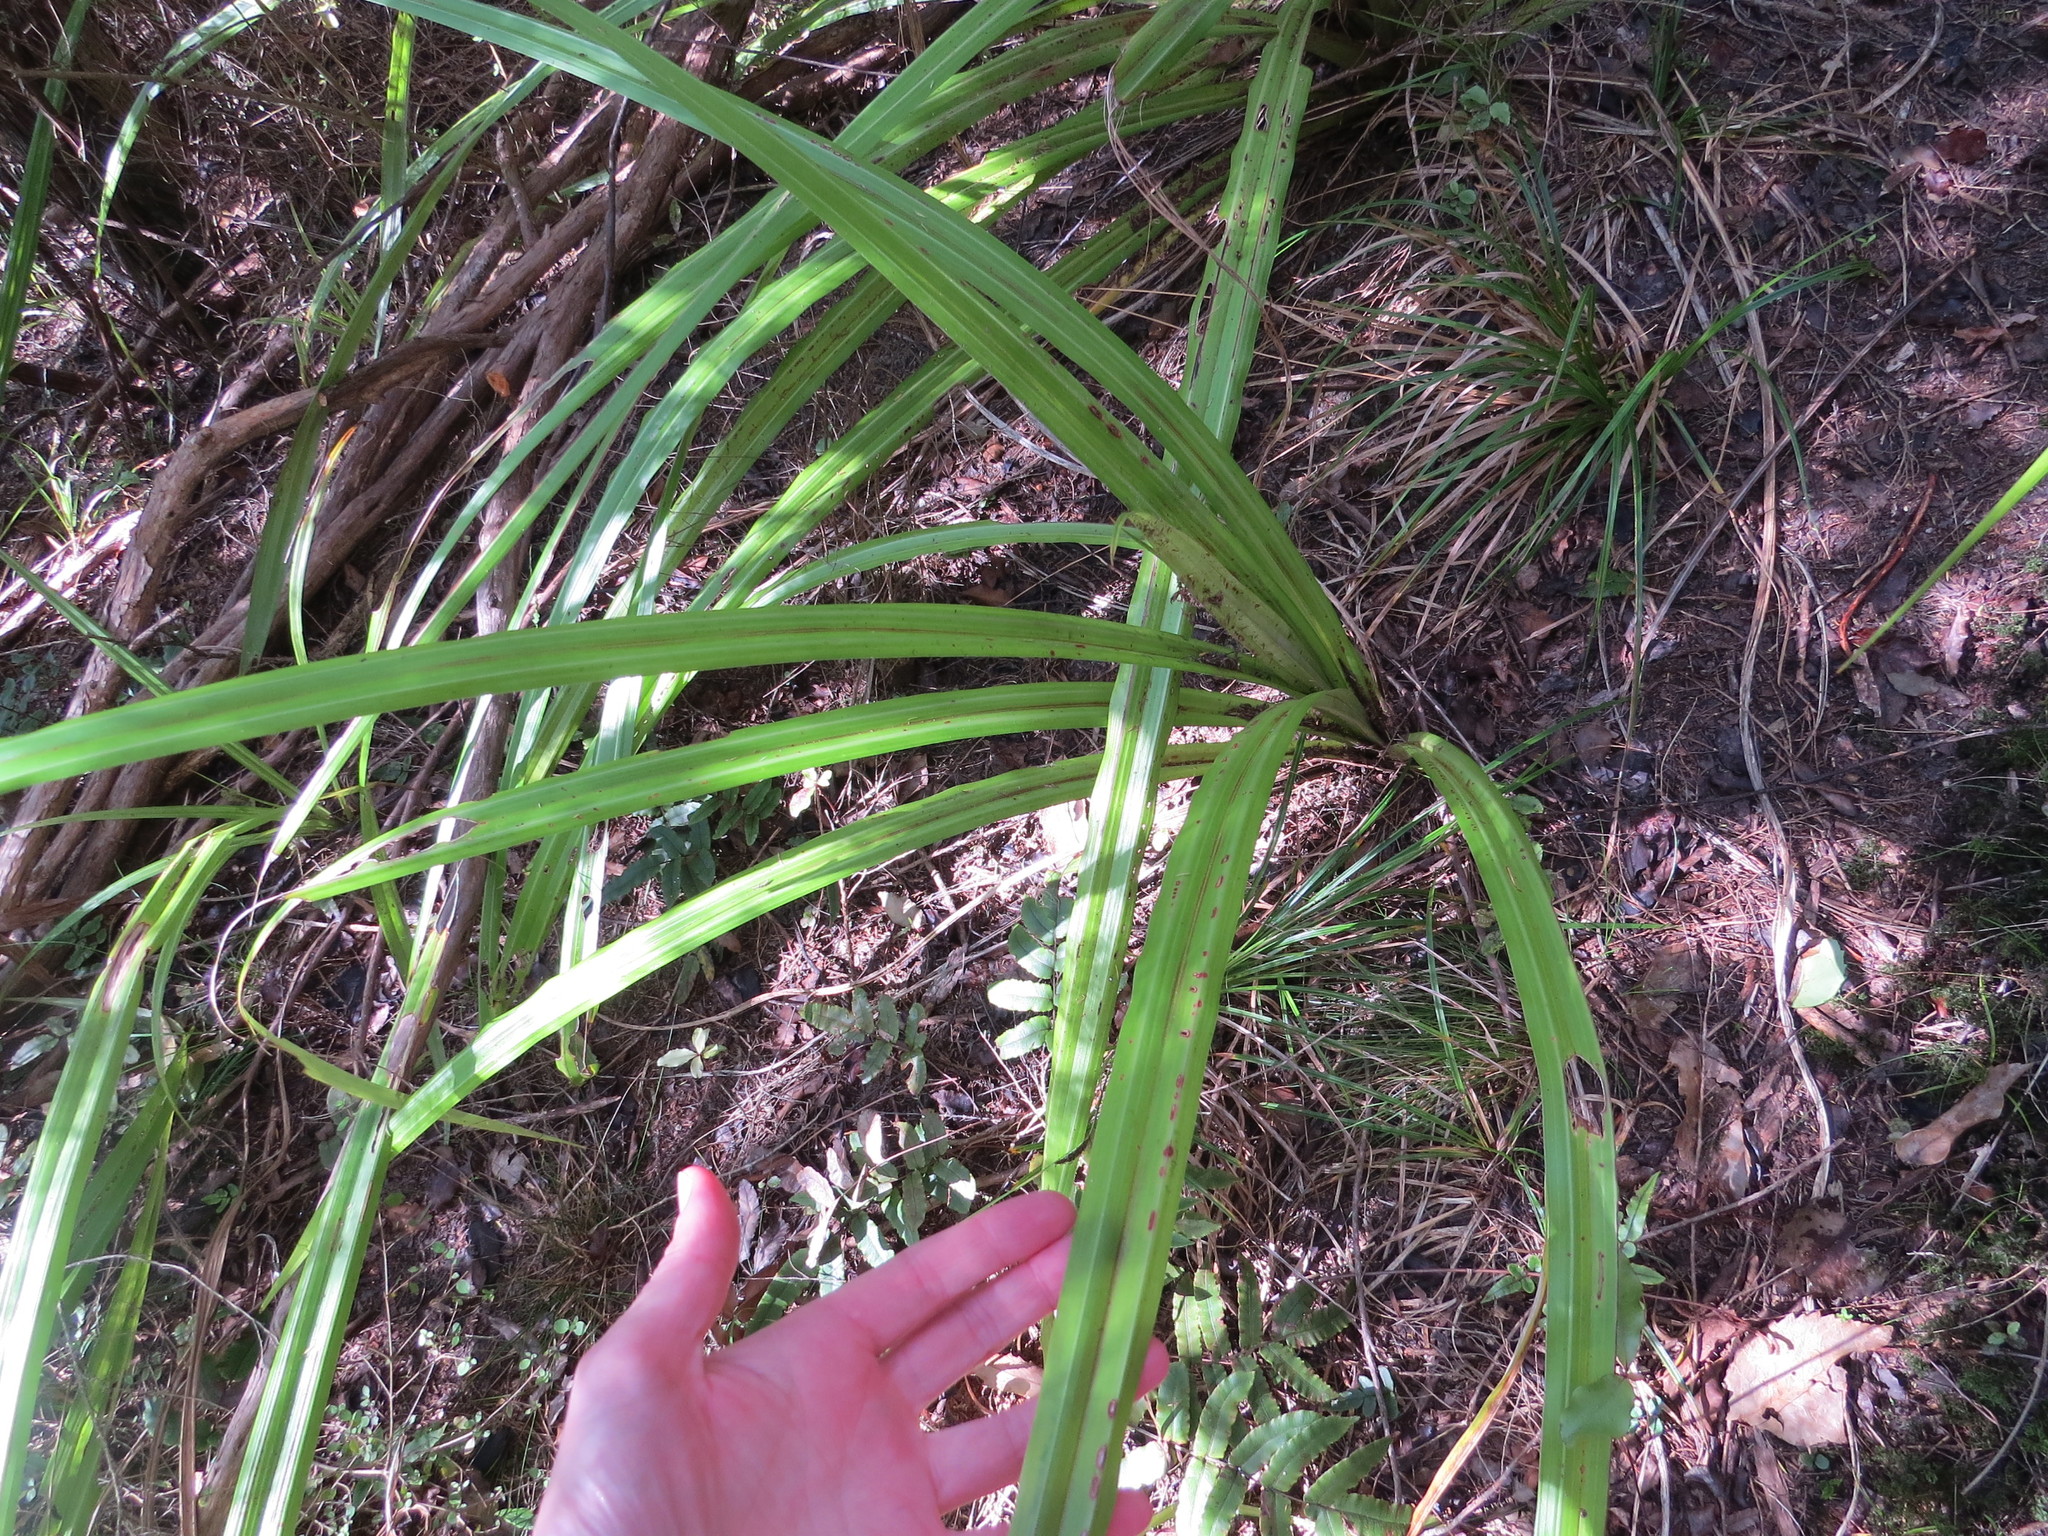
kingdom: Plantae
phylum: Tracheophyta
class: Liliopsida
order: Asparagales
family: Asteliaceae
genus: Astelia
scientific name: Astelia fragrans
